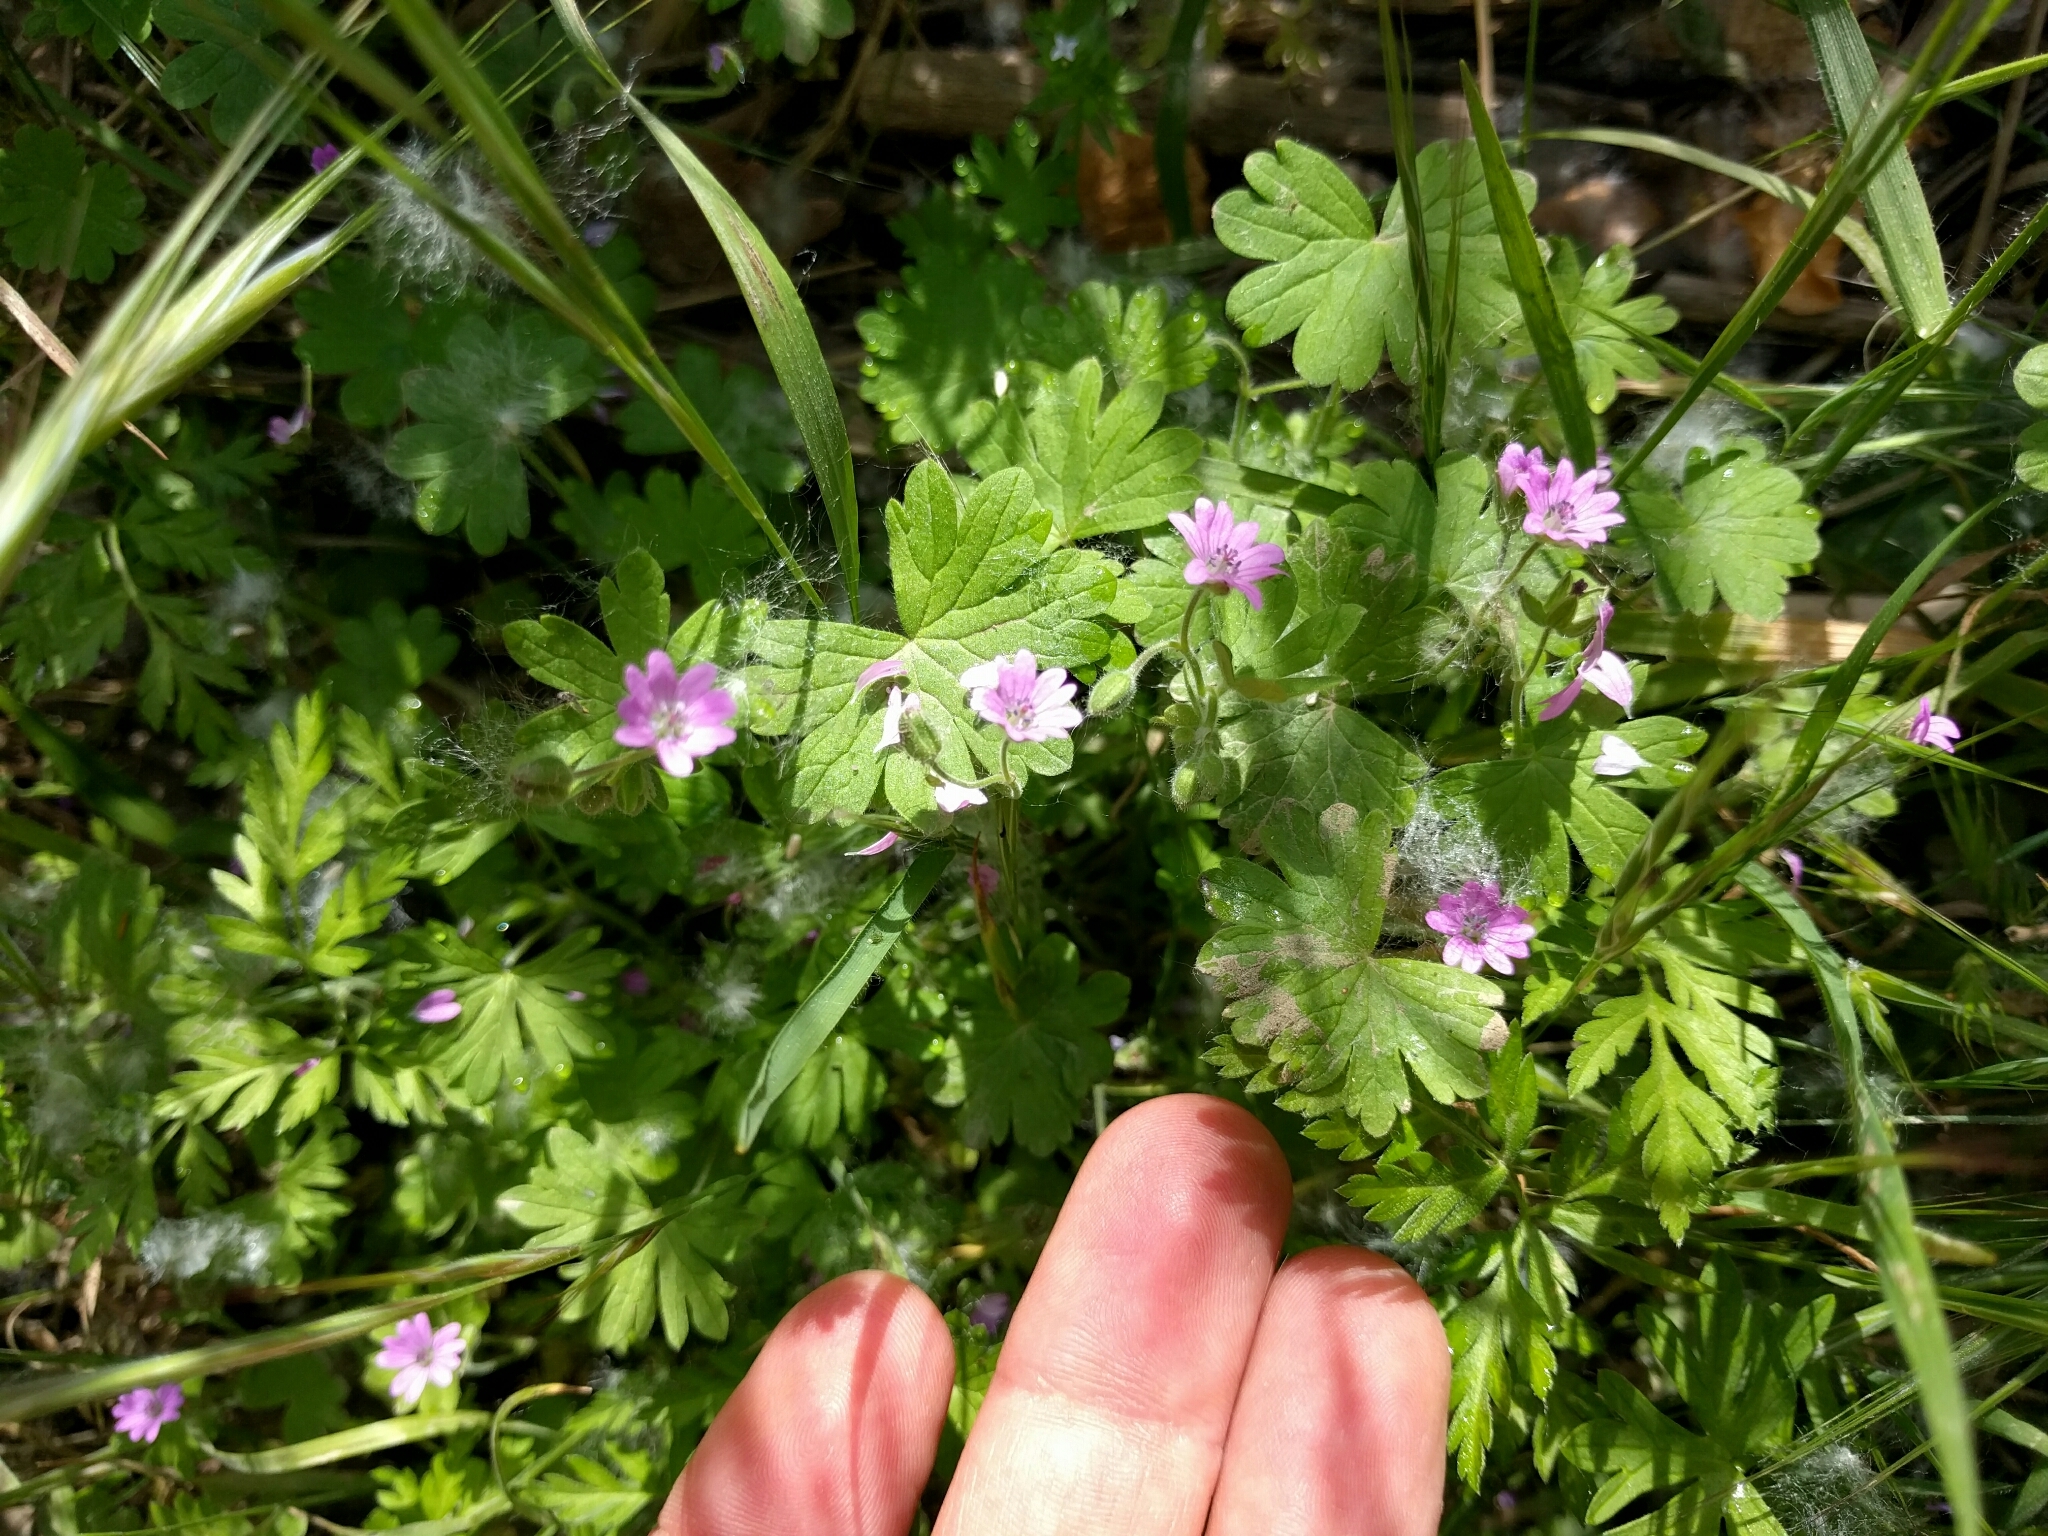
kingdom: Plantae
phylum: Tracheophyta
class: Magnoliopsida
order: Geraniales
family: Geraniaceae
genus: Geranium
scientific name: Geranium molle
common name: Dove's-foot crane's-bill
